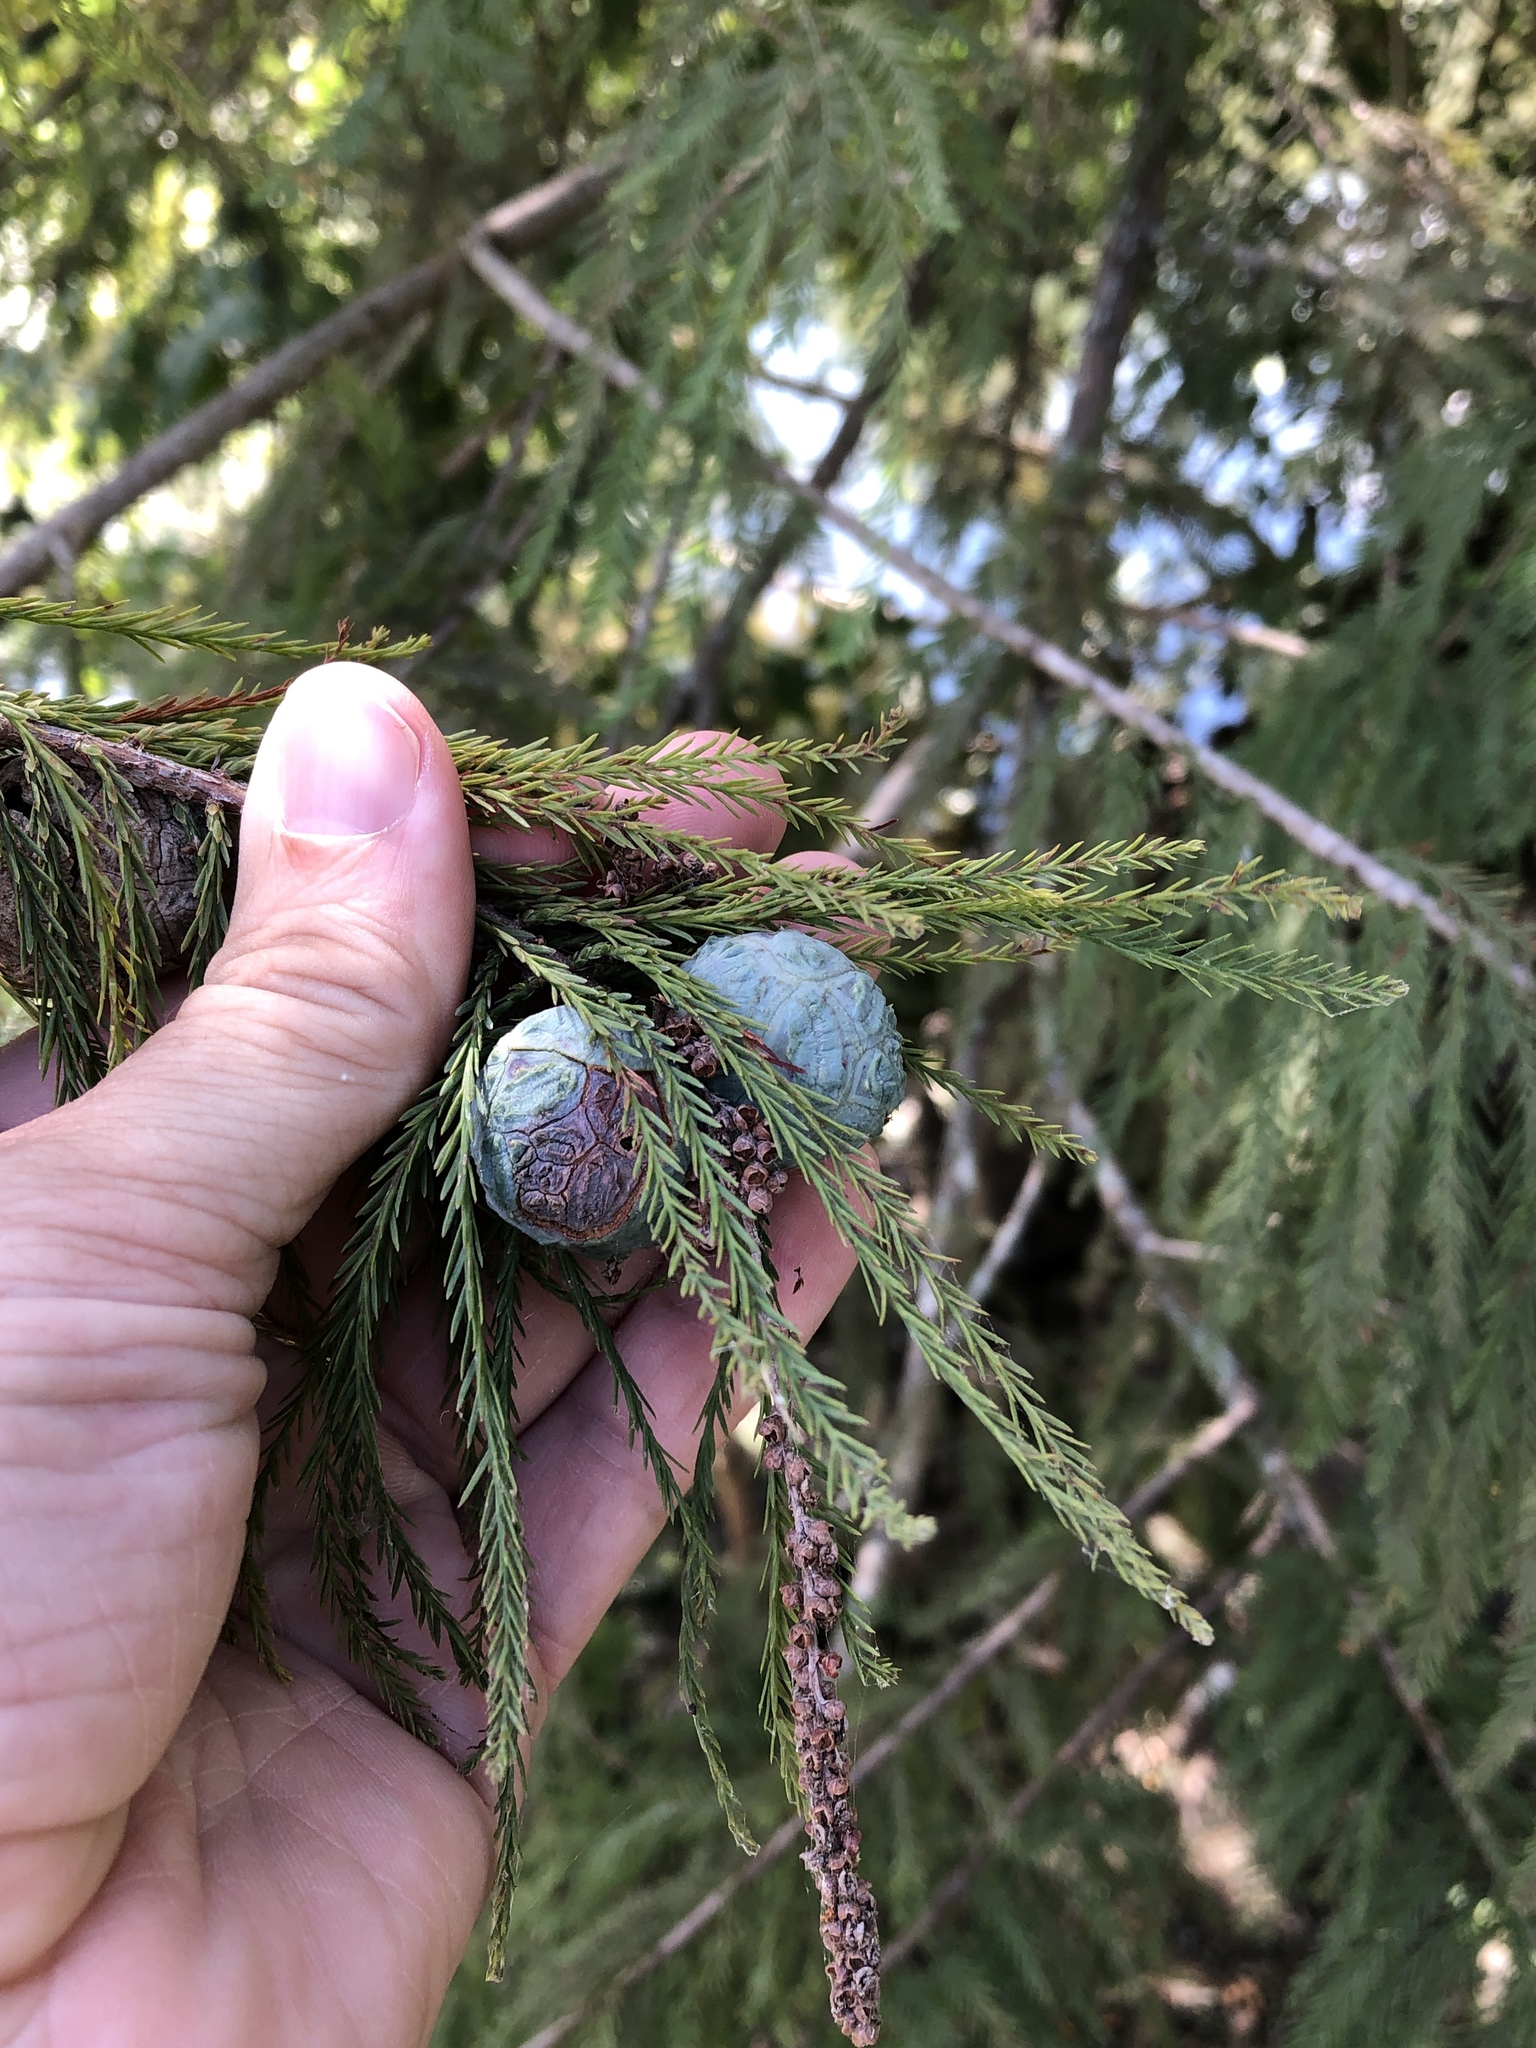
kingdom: Plantae
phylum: Tracheophyta
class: Pinopsida
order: Pinales
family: Cupressaceae
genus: Taxodium
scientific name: Taxodium distichum
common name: Bald cypress
